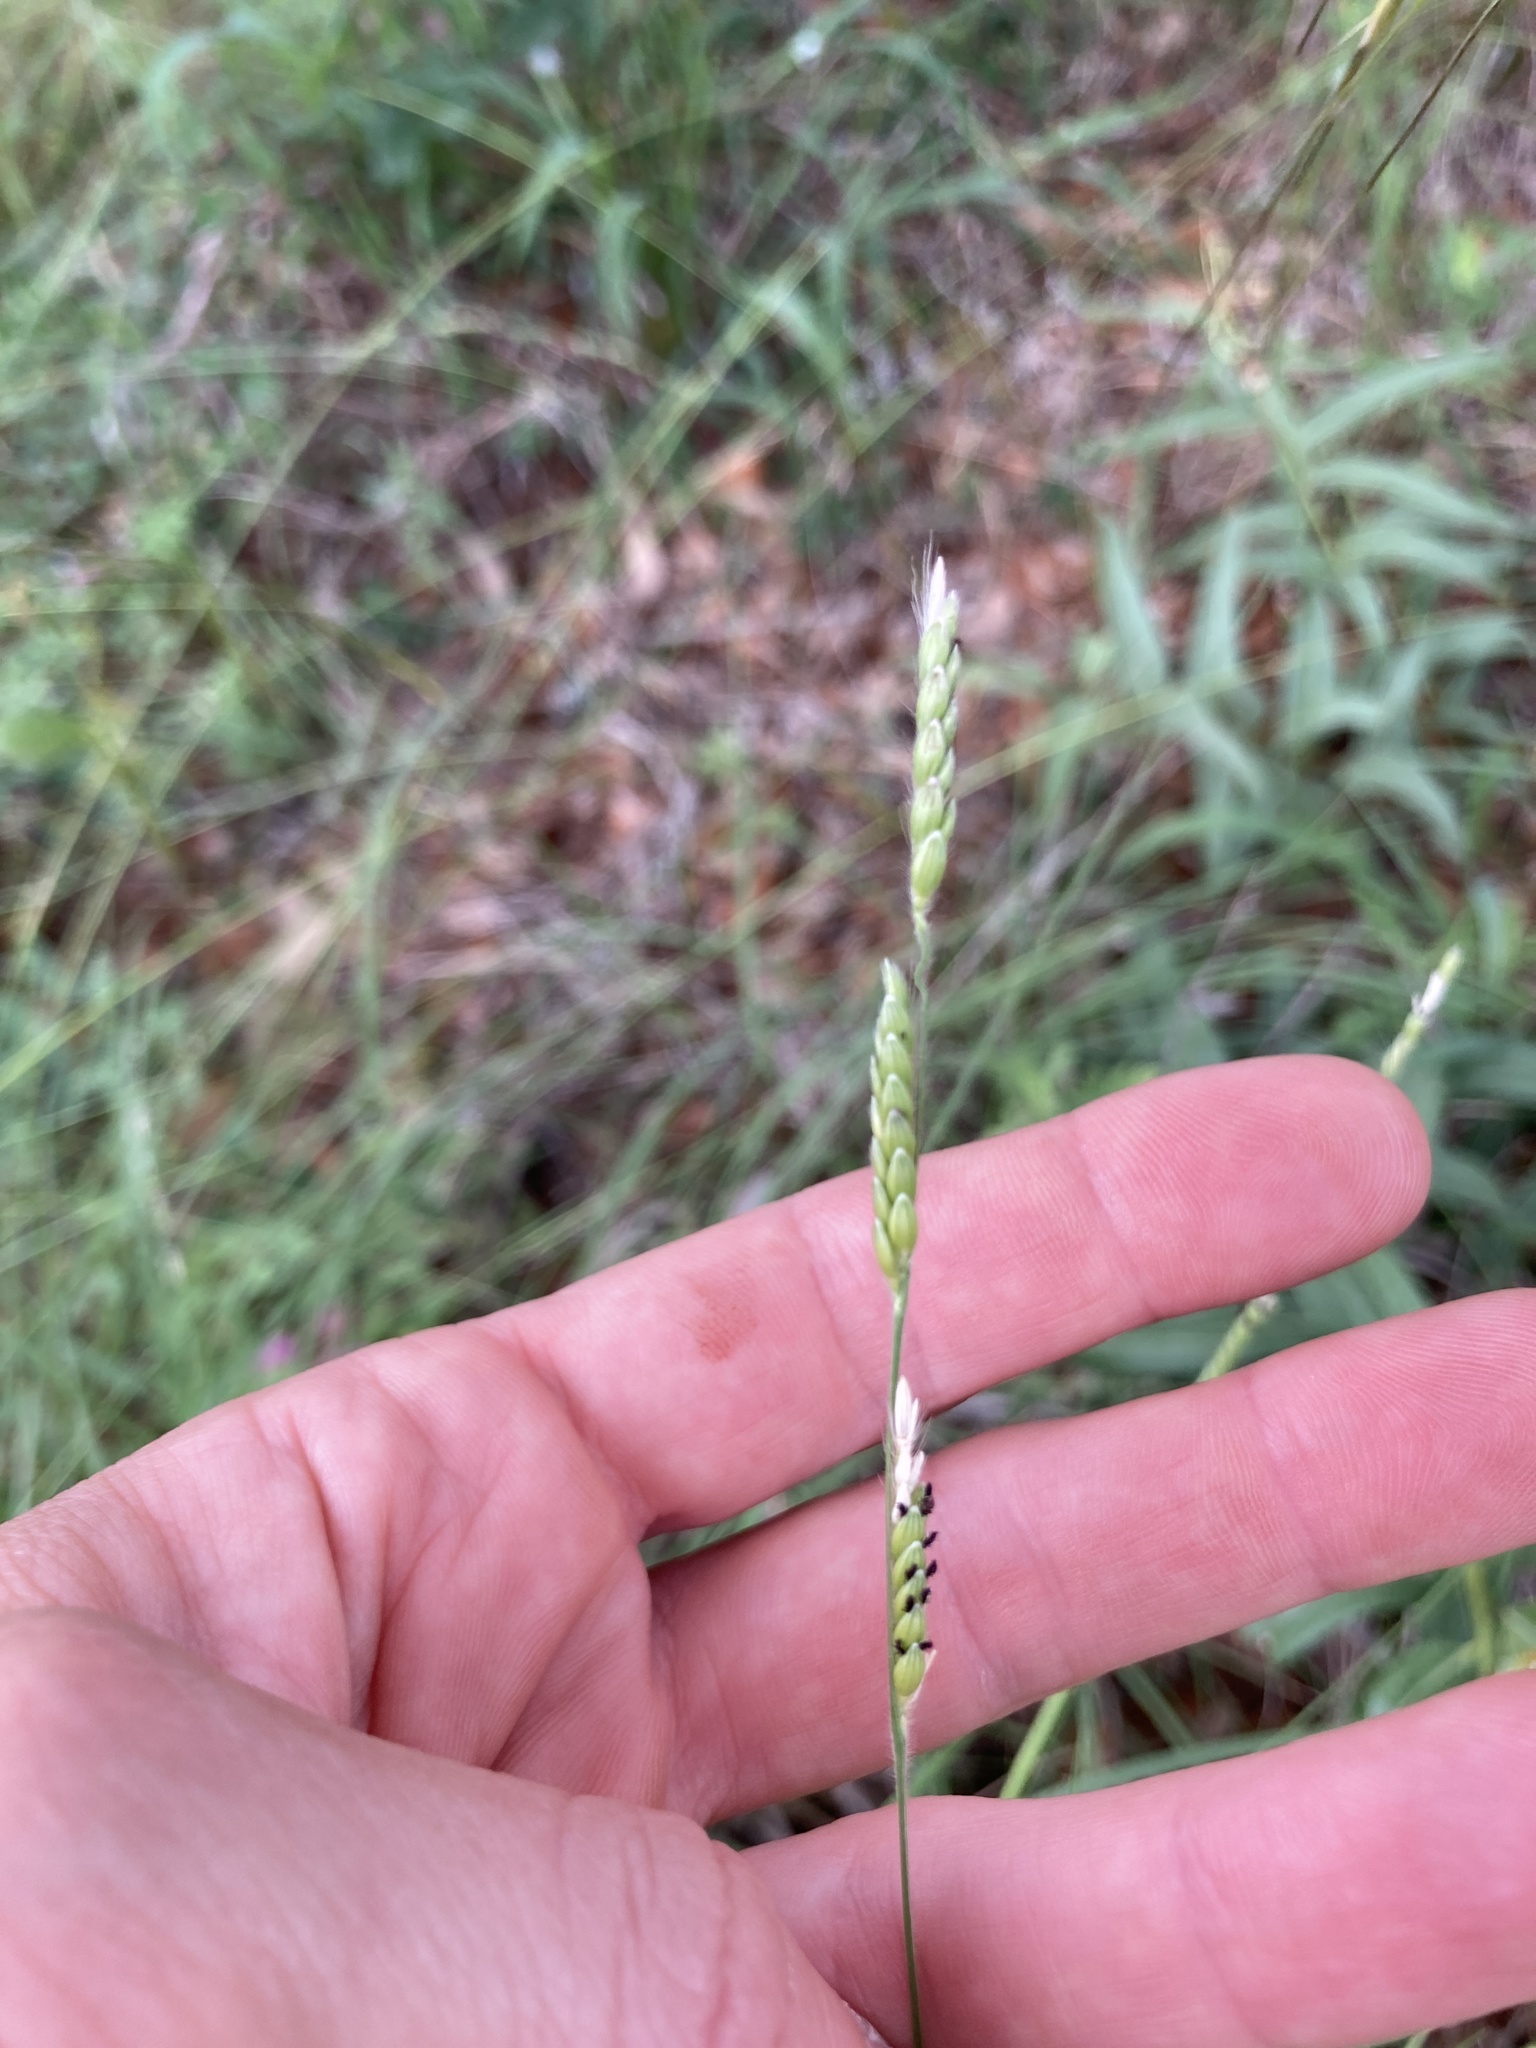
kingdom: Plantae
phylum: Tracheophyta
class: Liliopsida
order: Poales
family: Poaceae
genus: Eriochloa
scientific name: Eriochloa sericea
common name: Texas cup grass
